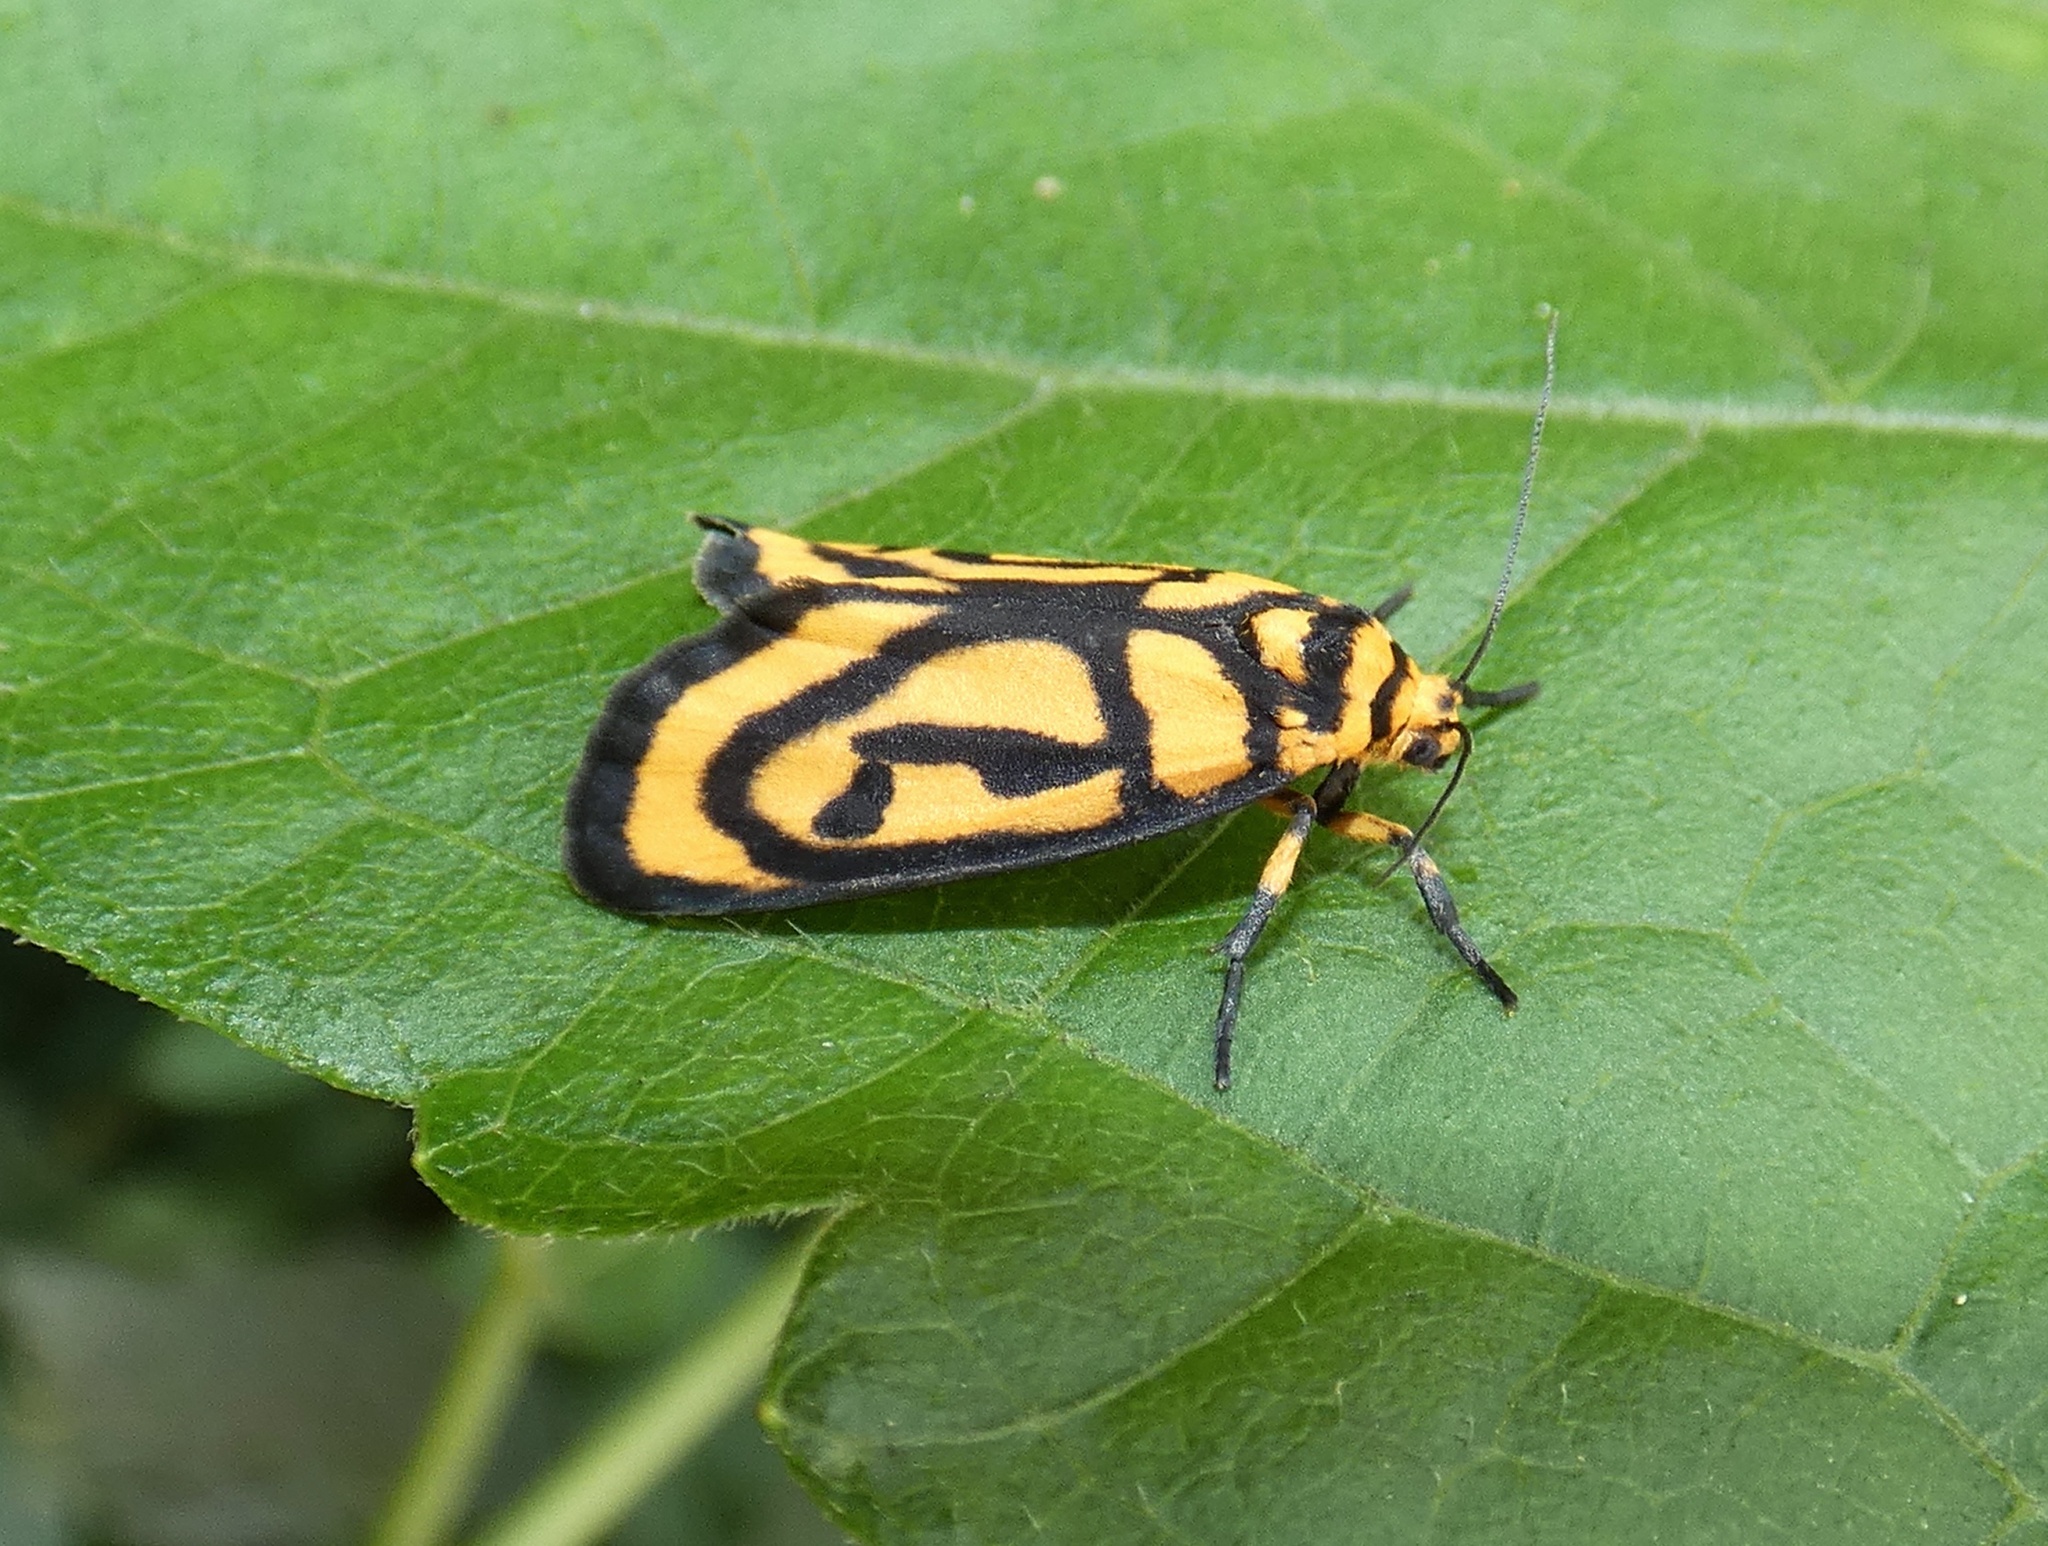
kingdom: Animalia
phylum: Arthropoda
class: Insecta
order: Lepidoptera
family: Erebidae
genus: Xanthetis
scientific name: Xanthetis luzonica
